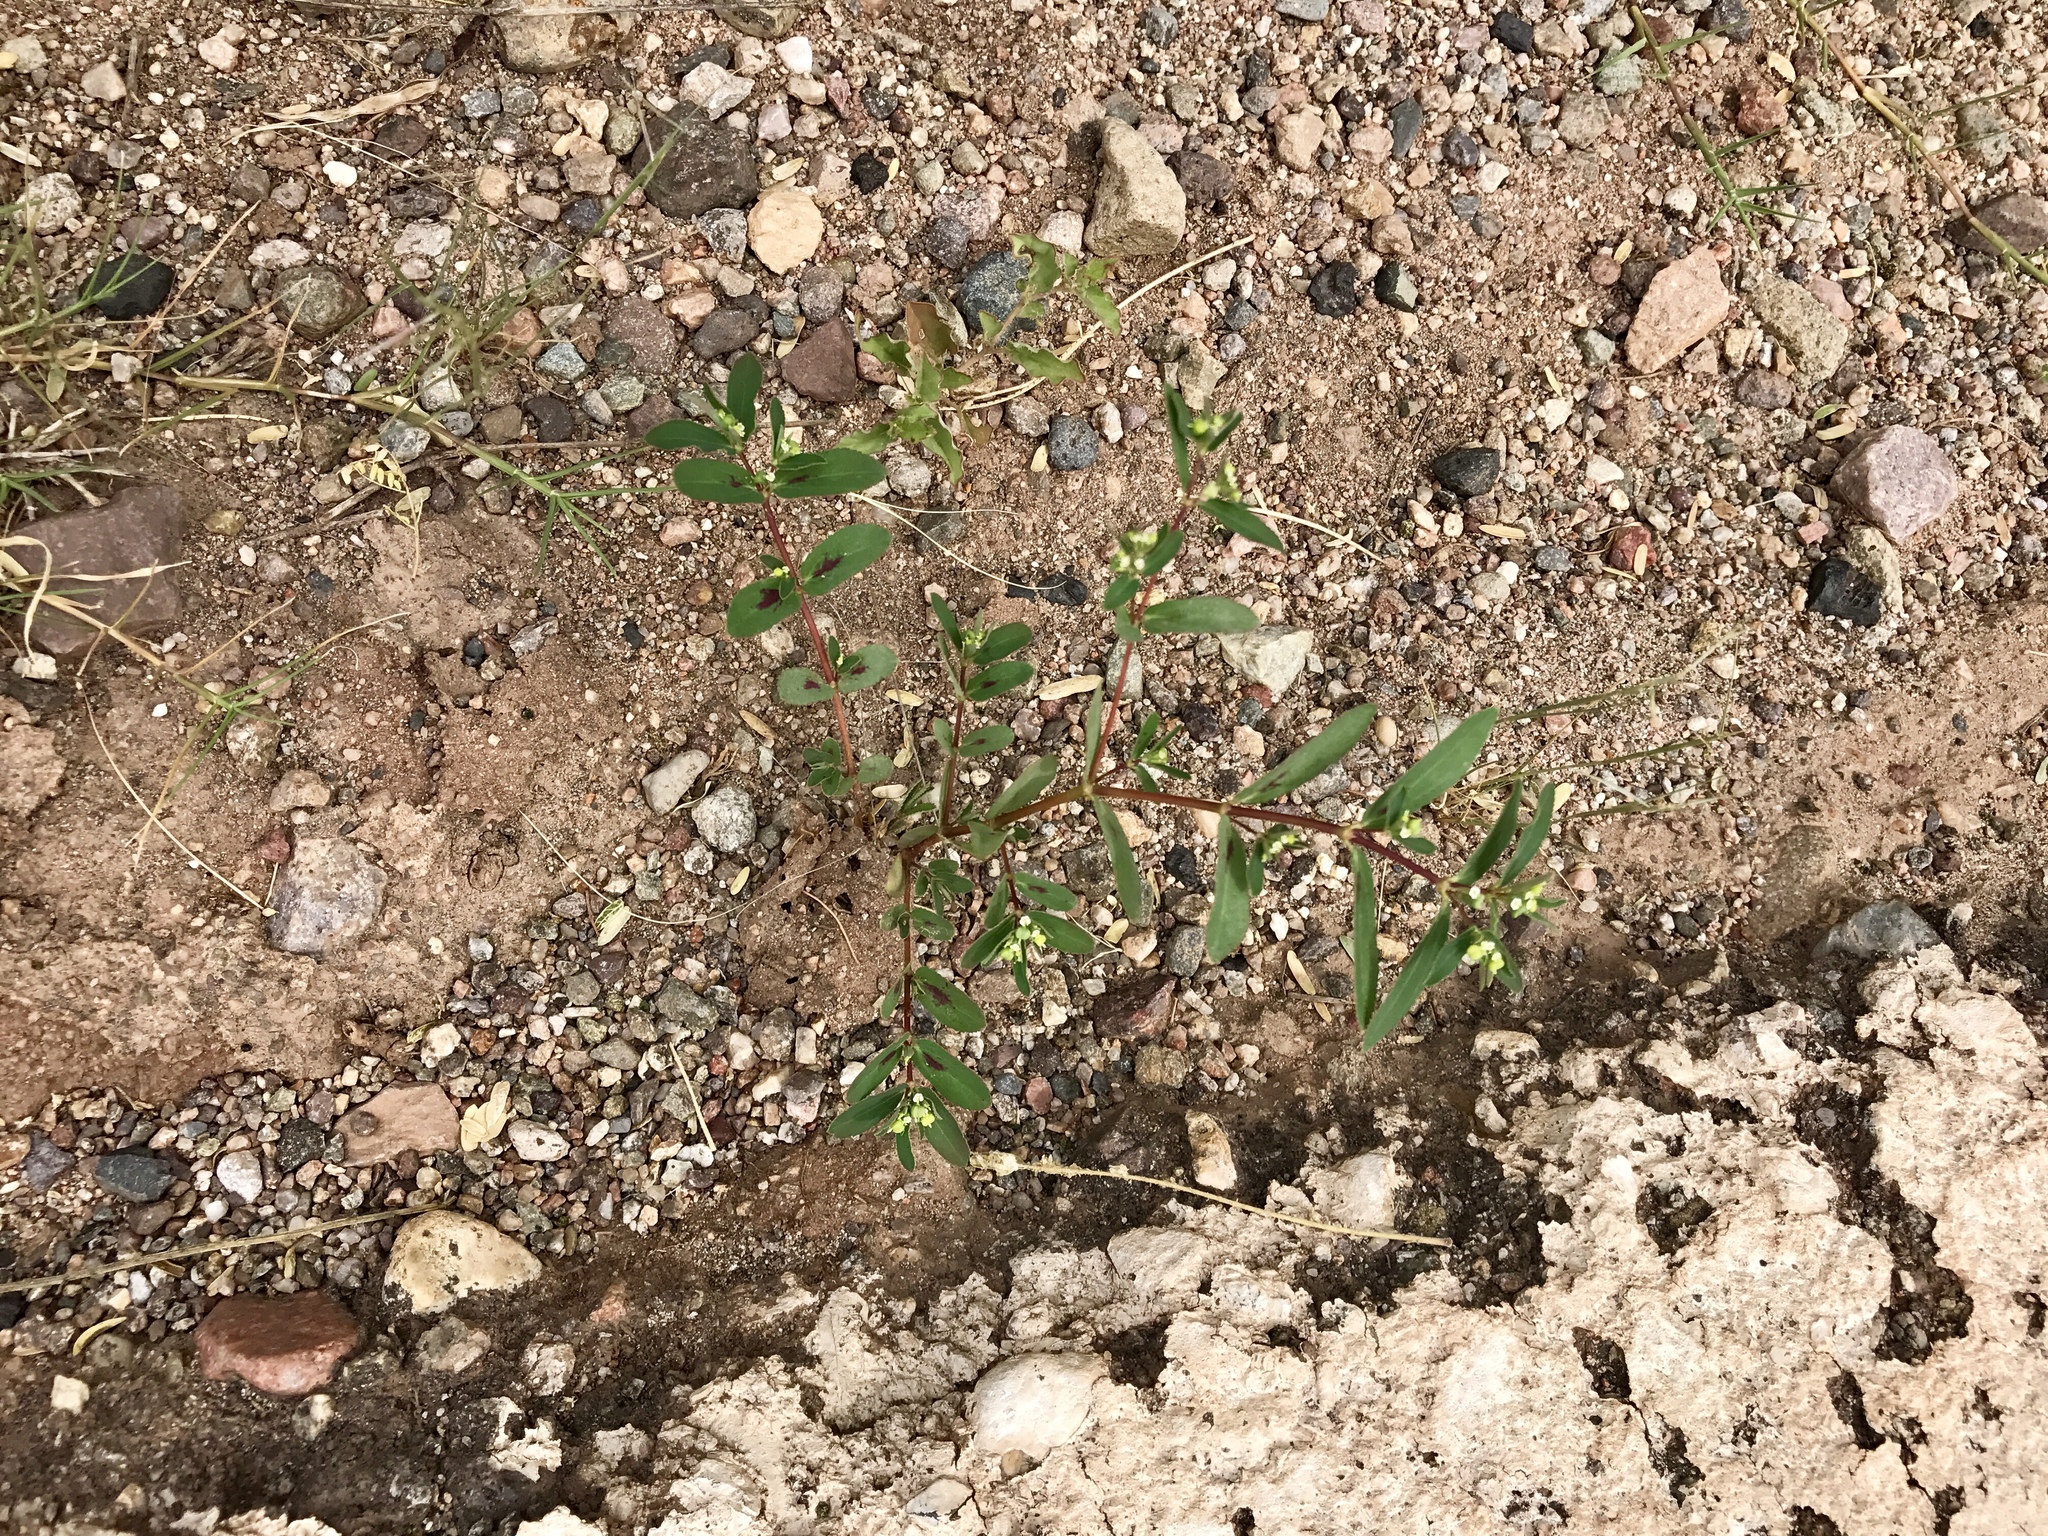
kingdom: Plantae
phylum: Tracheophyta
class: Magnoliopsida
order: Malpighiales
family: Euphorbiaceae
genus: Euphorbia
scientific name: Euphorbia hyssopifolia
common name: Hyssopleaf sandmat
